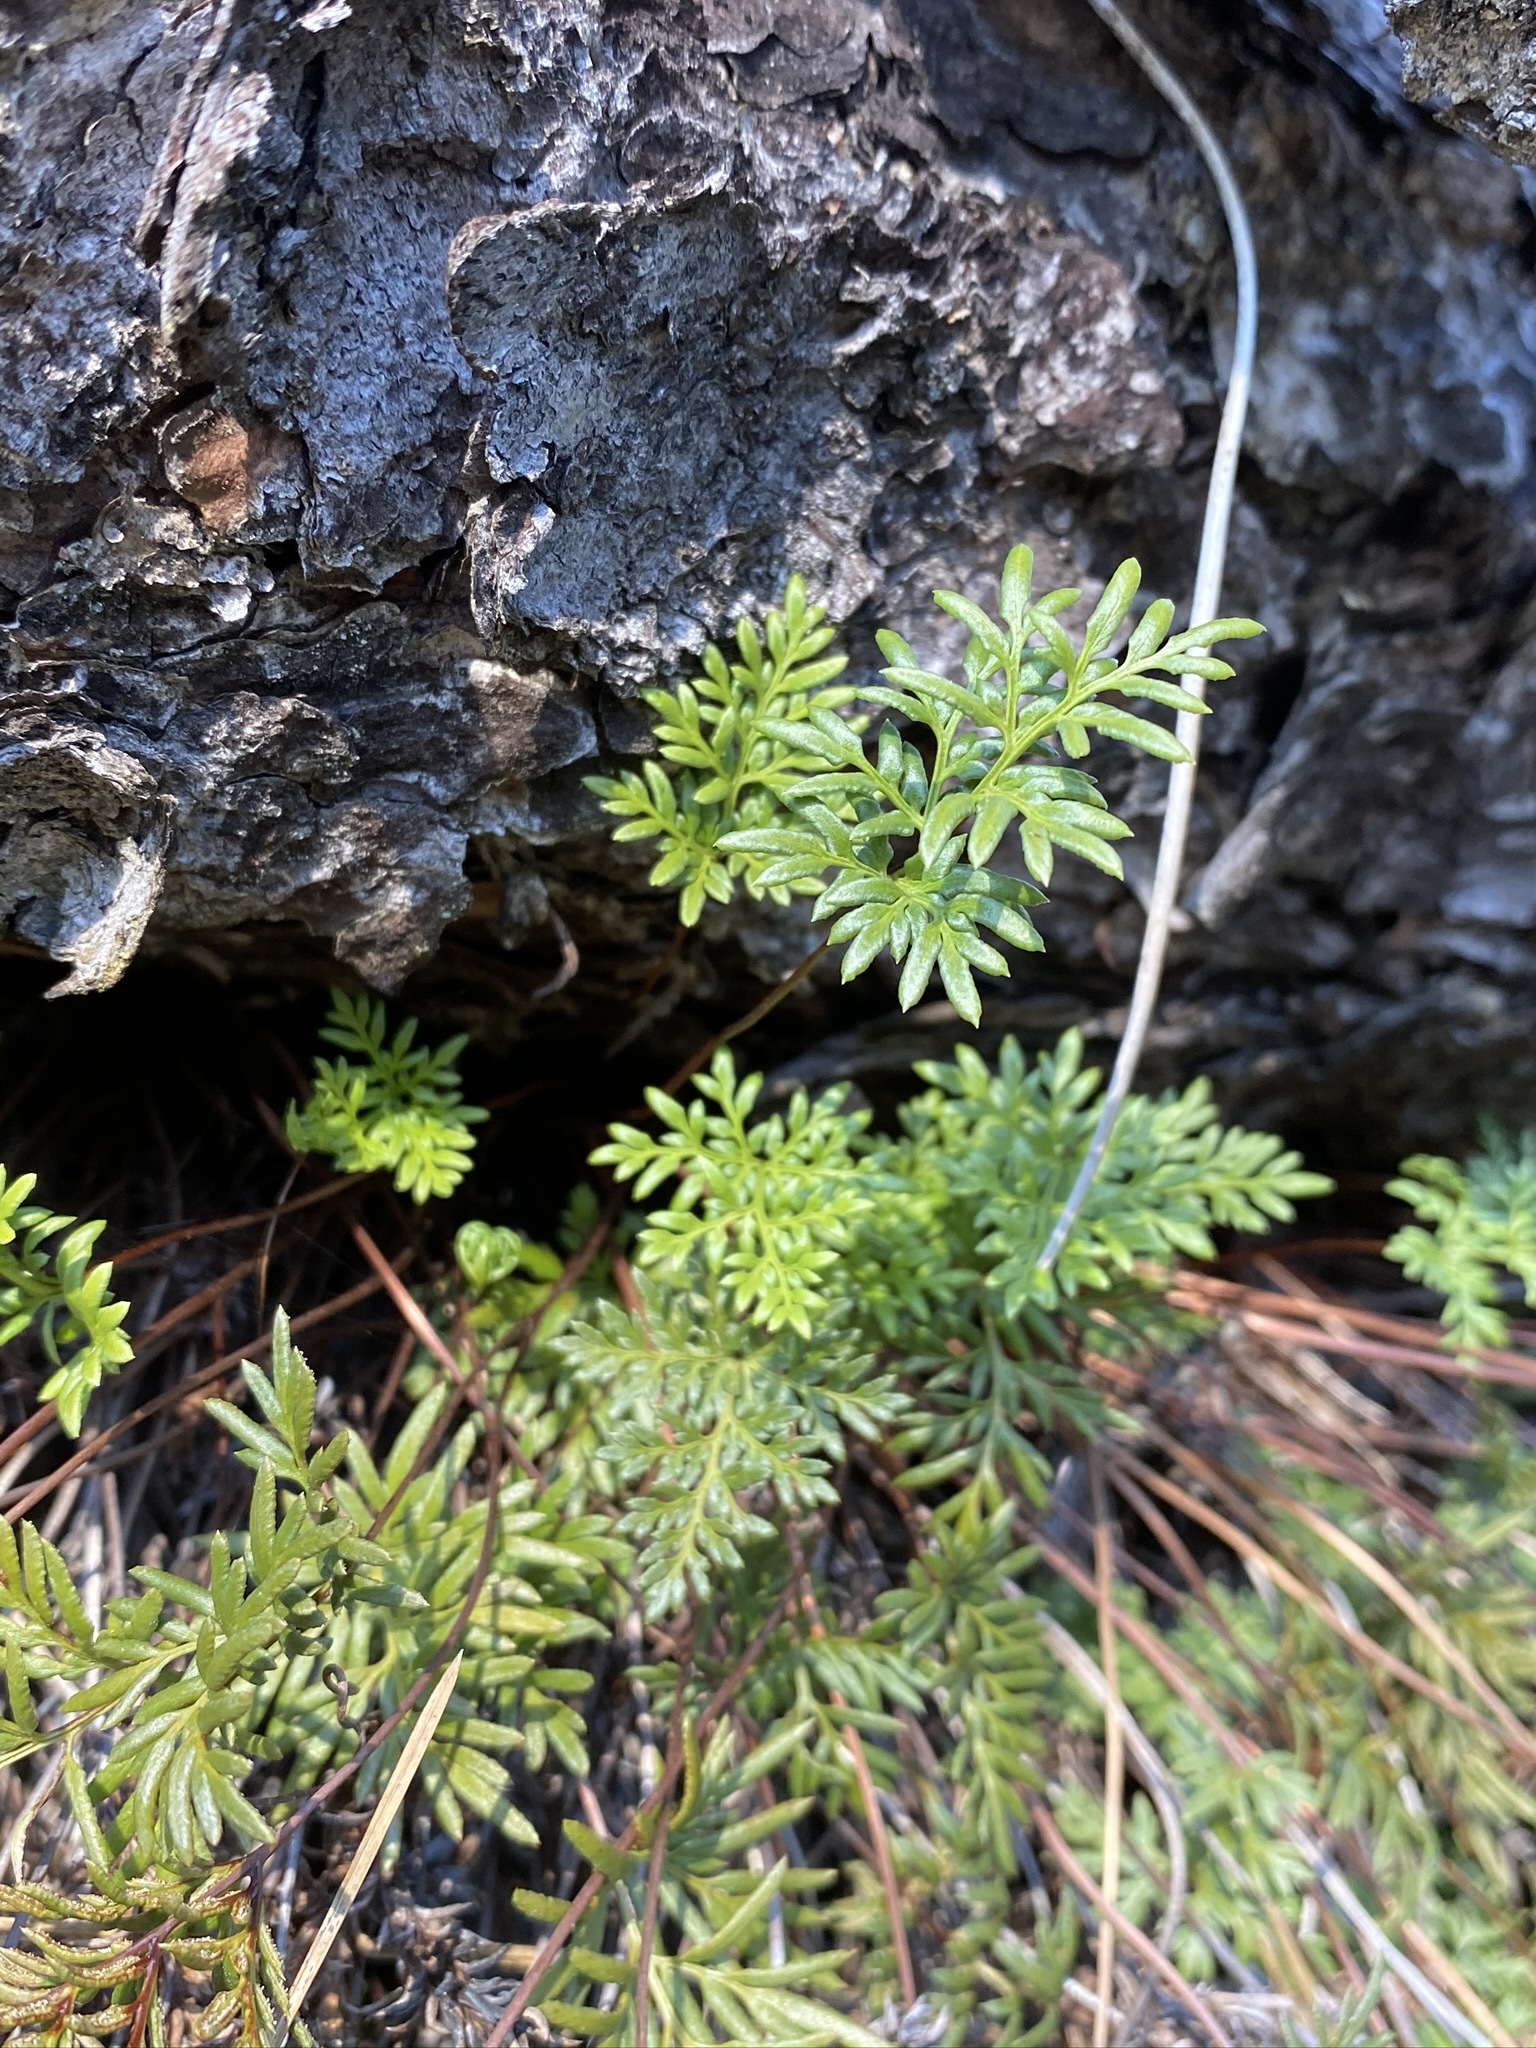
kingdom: Plantae
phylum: Tracheophyta
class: Polypodiopsida
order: Polypodiales
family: Pteridaceae
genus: Aspidotis
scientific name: Aspidotis densa
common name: Indian's dream
